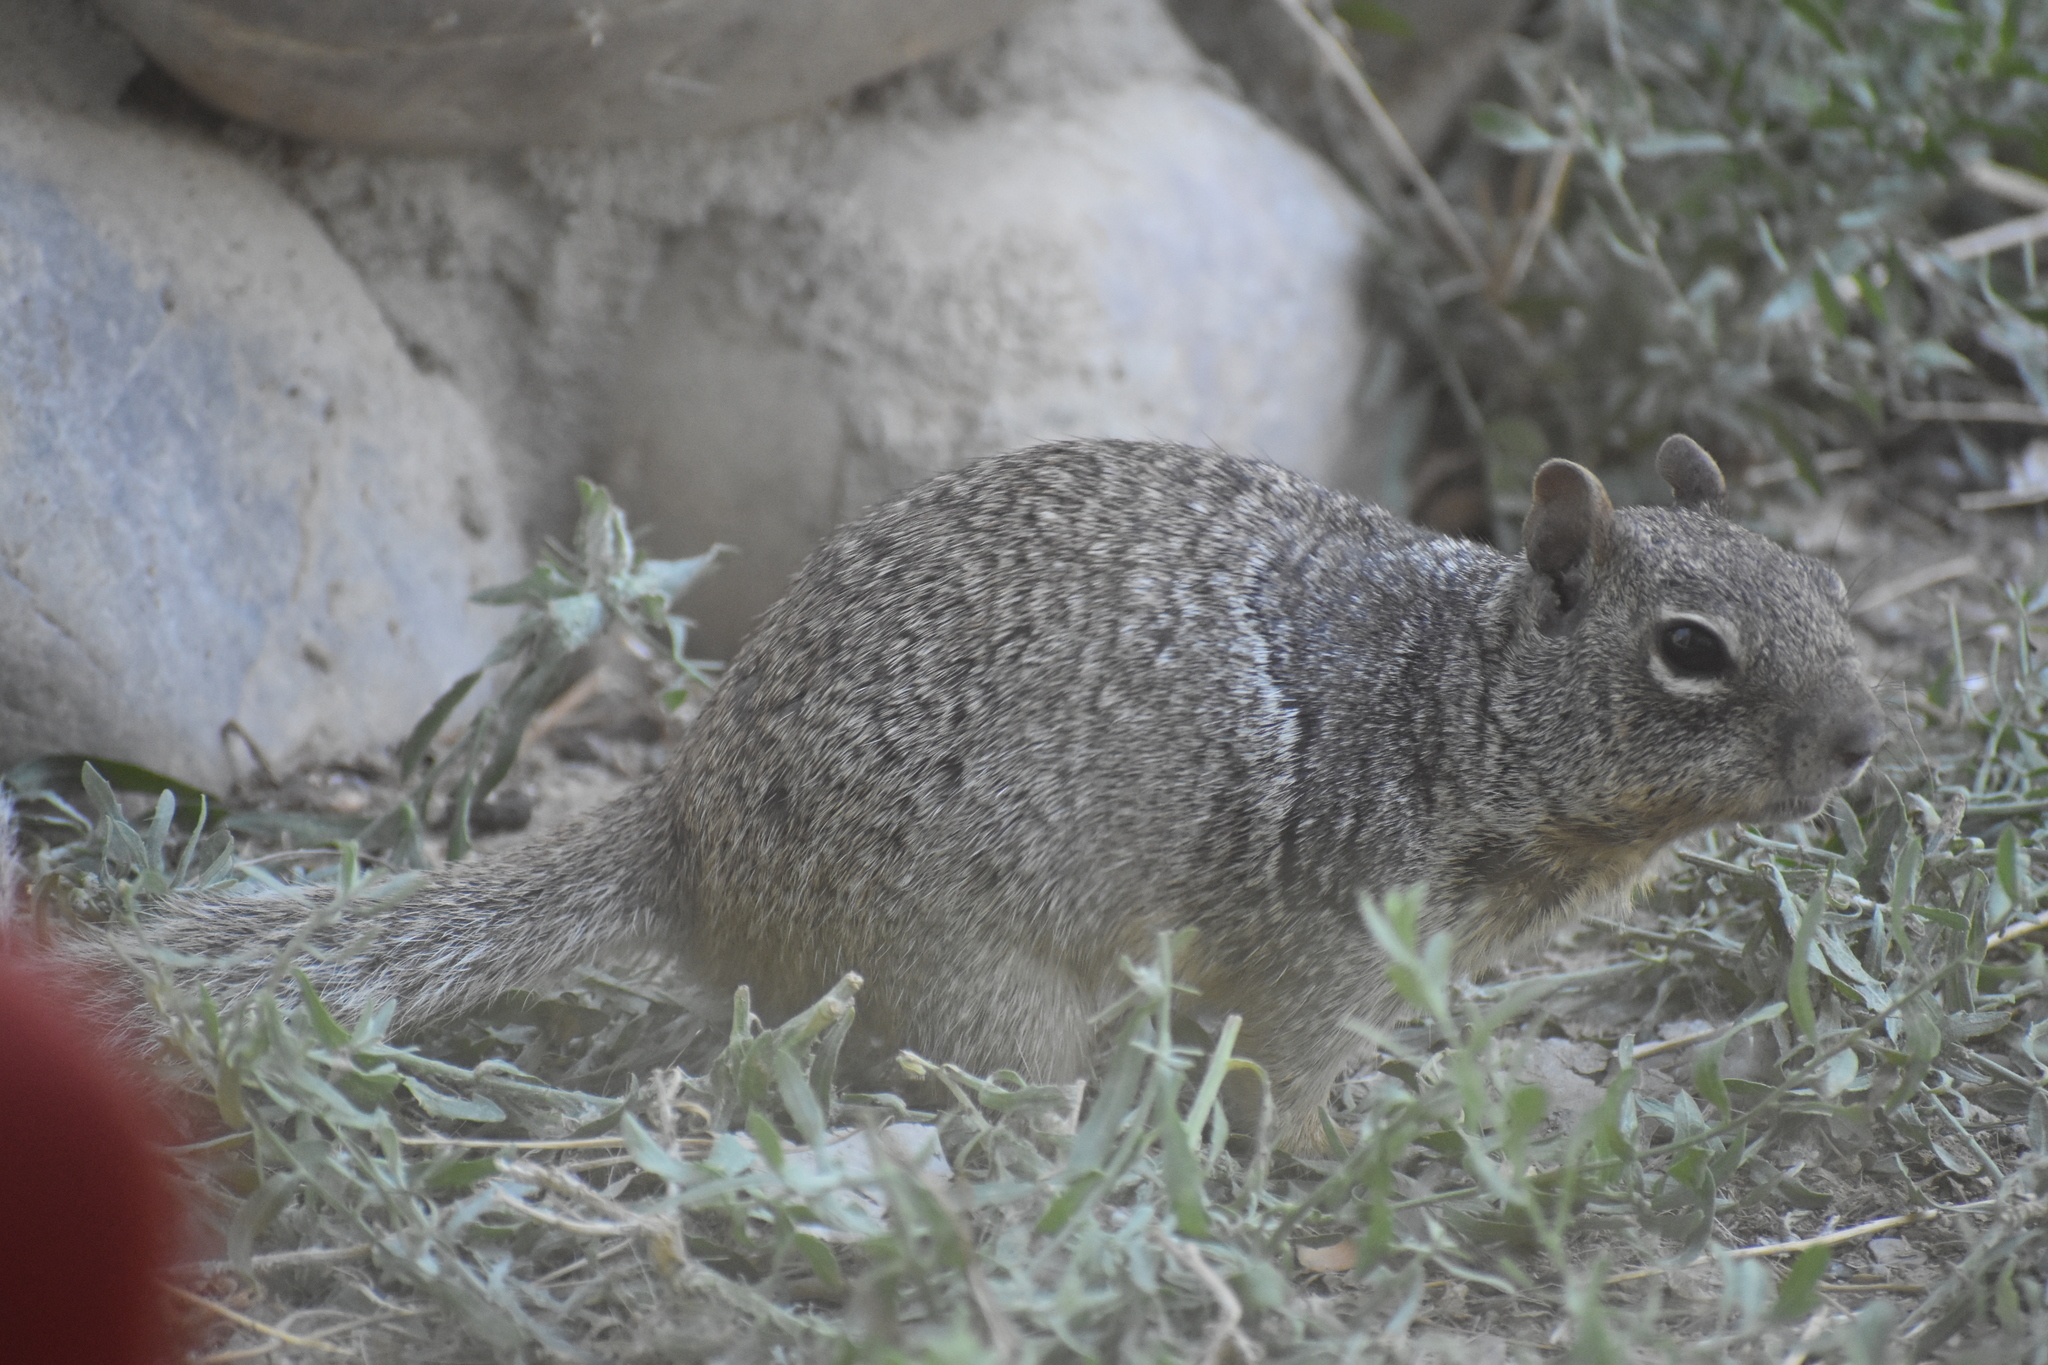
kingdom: Animalia
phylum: Chordata
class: Mammalia
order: Rodentia
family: Sciuridae
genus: Otospermophilus
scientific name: Otospermophilus variegatus
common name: Rock squirrel
